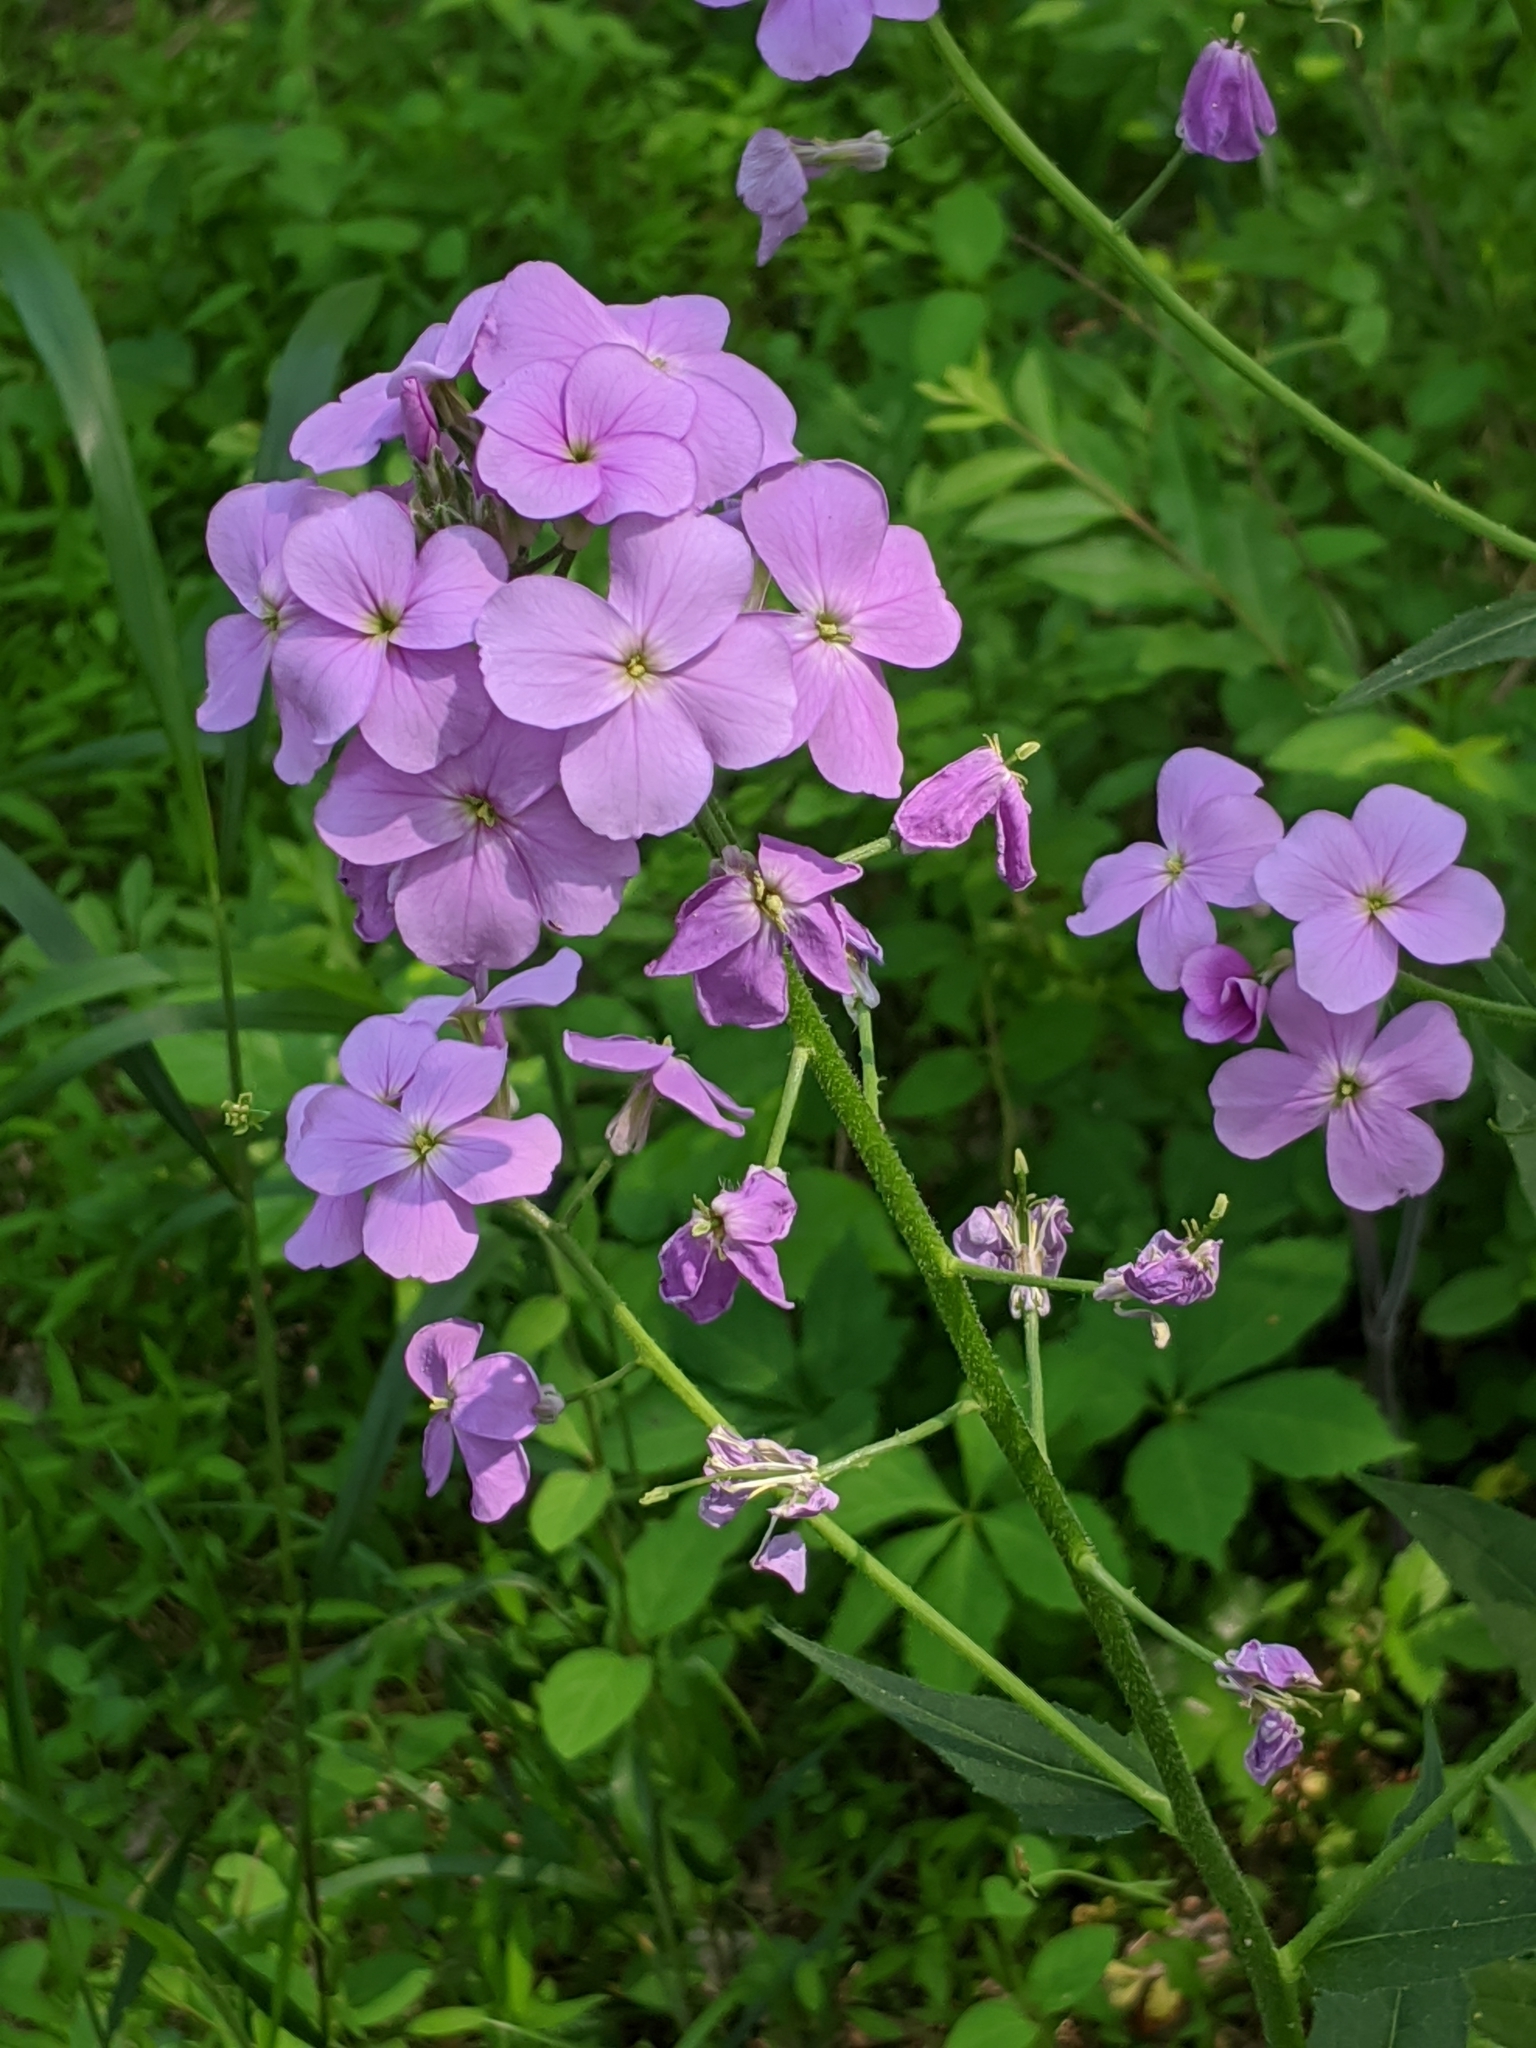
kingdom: Plantae
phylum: Tracheophyta
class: Magnoliopsida
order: Brassicales
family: Brassicaceae
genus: Hesperis
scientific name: Hesperis matronalis
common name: Dame's-violet
